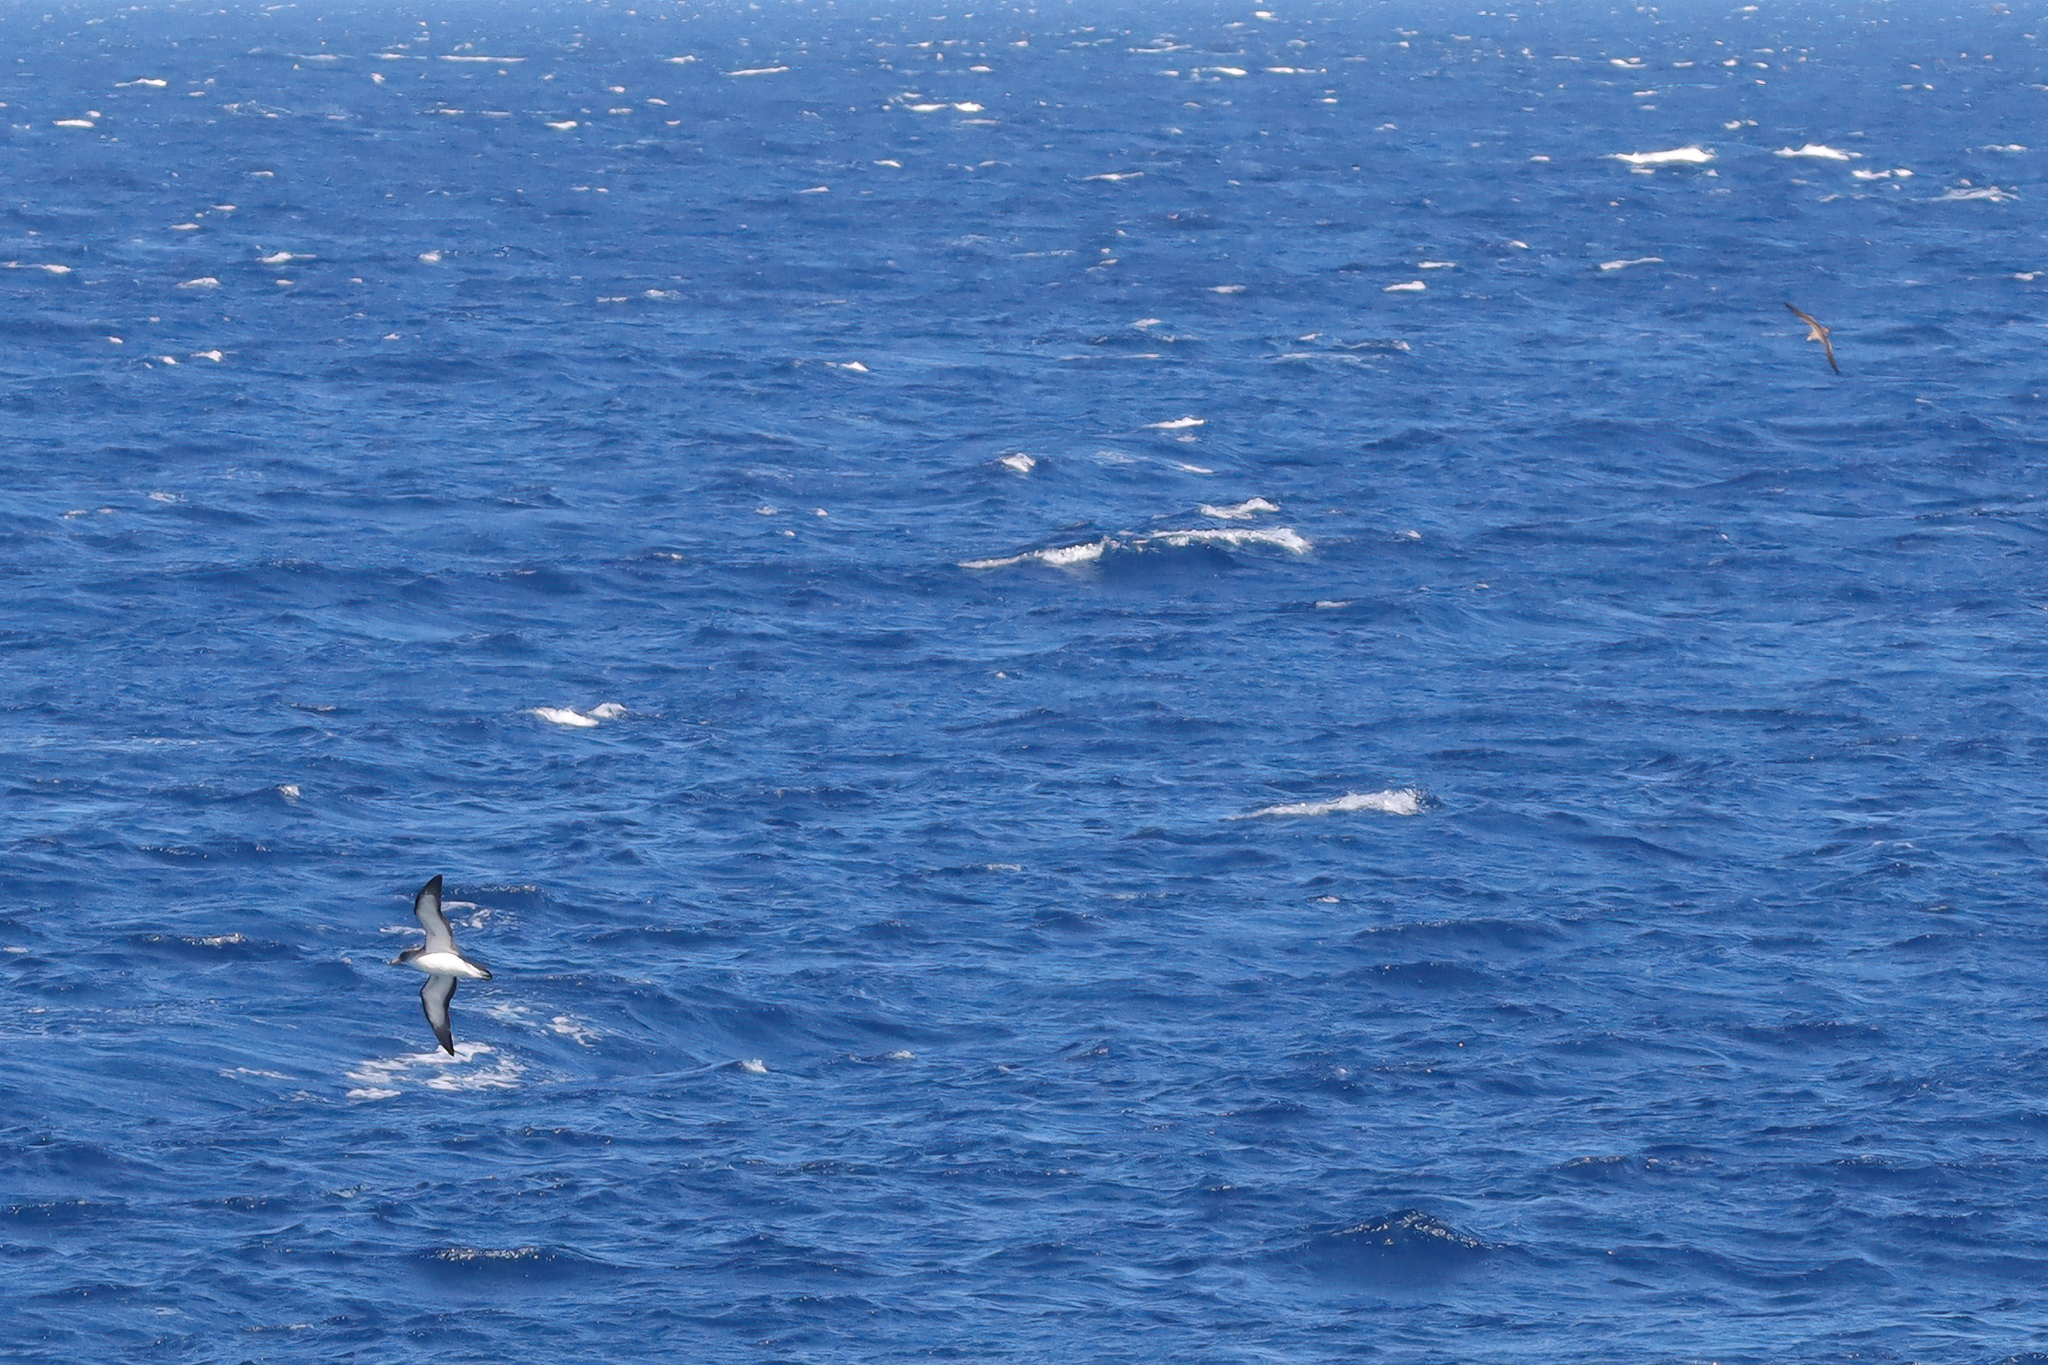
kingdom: Animalia
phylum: Chordata
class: Aves
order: Procellariiformes
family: Procellariidae
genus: Calonectris
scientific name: Calonectris diomedea
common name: Cory's shearwater
